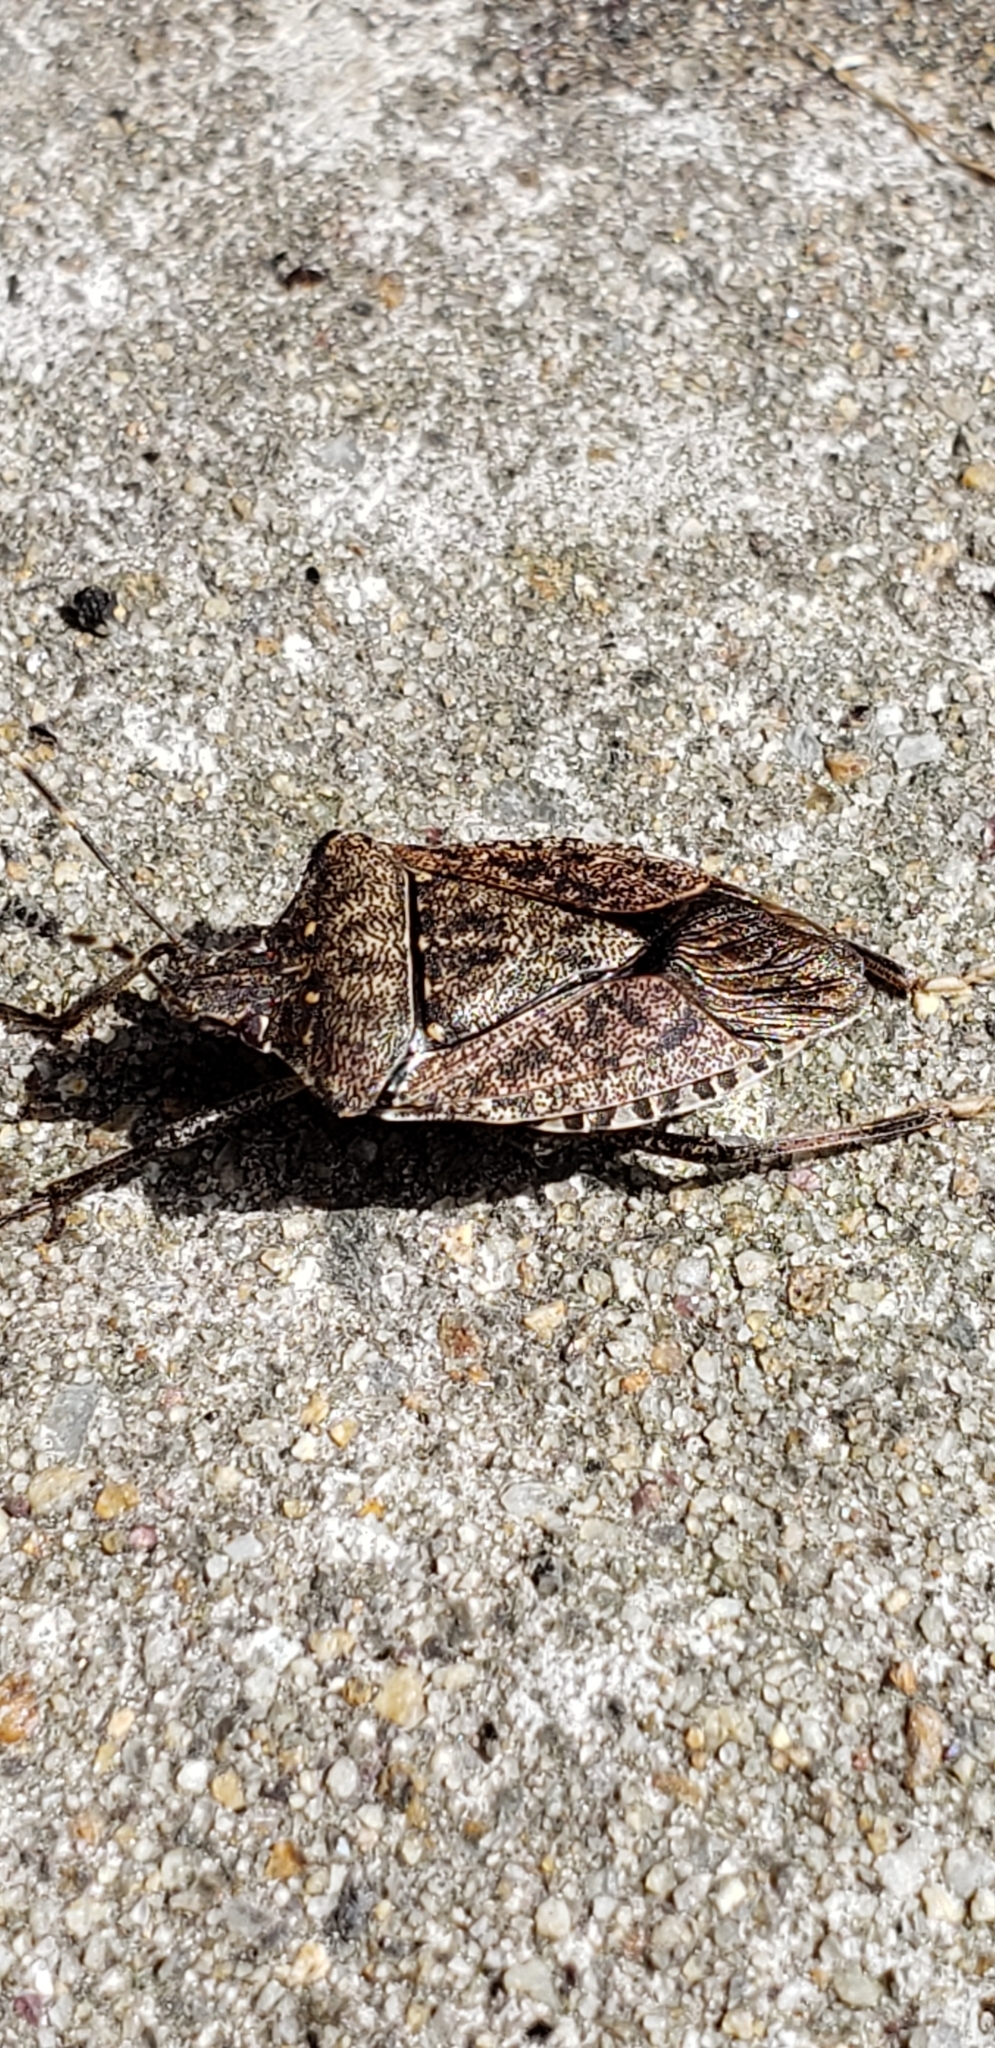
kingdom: Animalia
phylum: Arthropoda
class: Insecta
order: Hemiptera
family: Pentatomidae
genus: Halyomorpha
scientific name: Halyomorpha halys
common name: Brown marmorated stink bug
